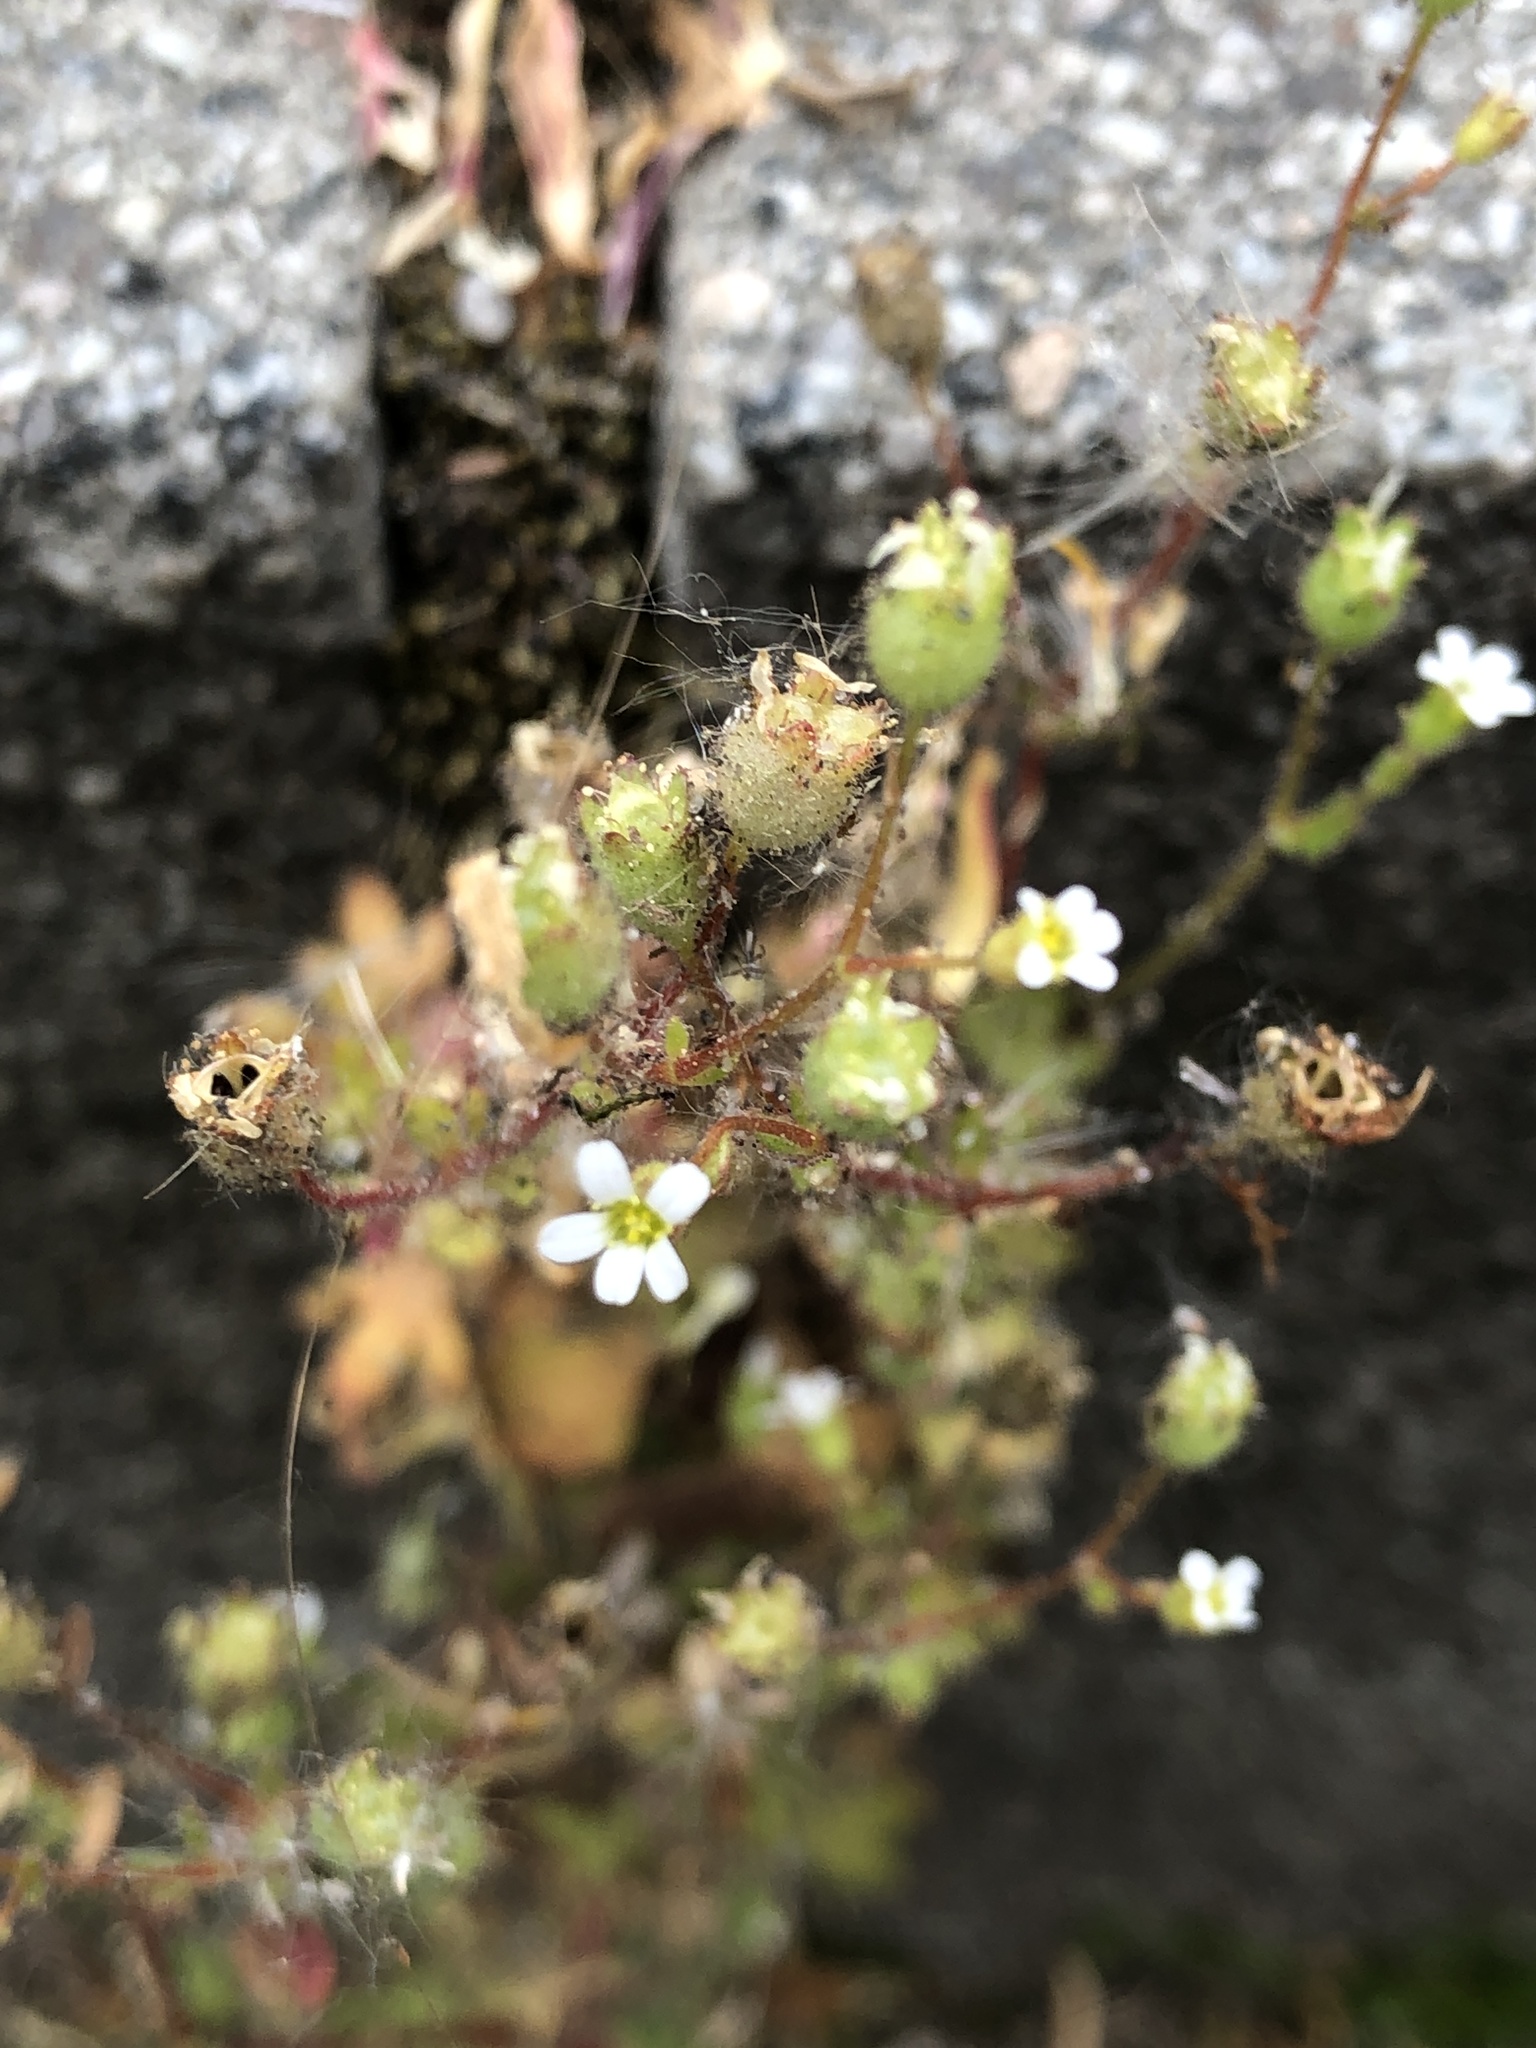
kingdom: Plantae
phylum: Tracheophyta
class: Magnoliopsida
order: Saxifragales
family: Saxifragaceae
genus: Saxifraga
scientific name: Saxifraga tridactylites
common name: Rue-leaved saxifrage
